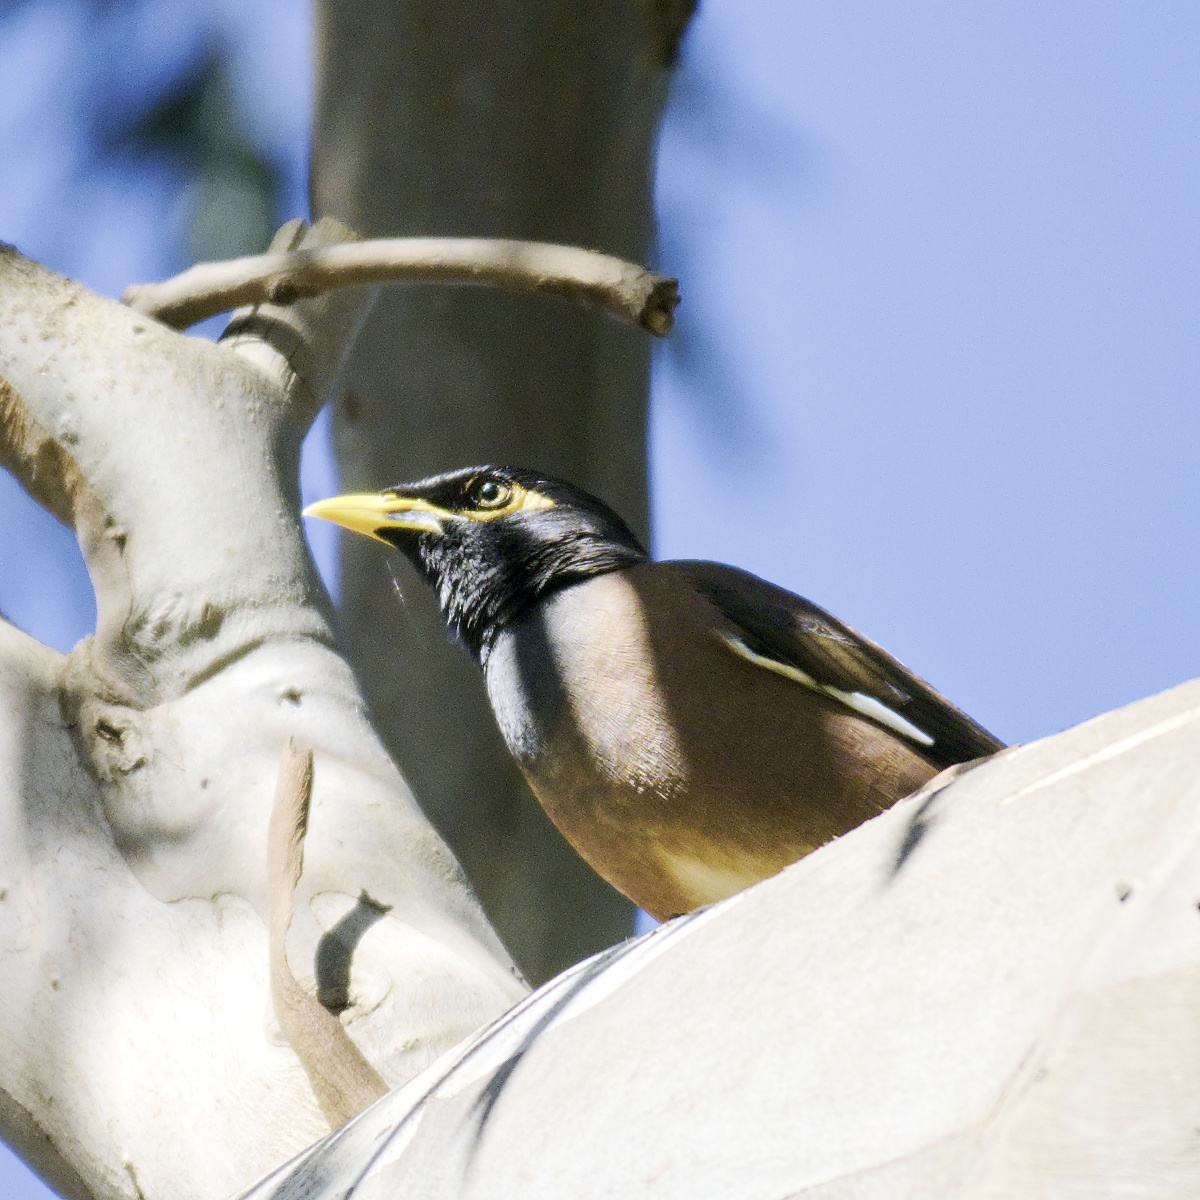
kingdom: Animalia
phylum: Chordata
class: Aves
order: Passeriformes
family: Sturnidae
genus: Acridotheres
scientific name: Acridotheres tristis
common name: Common myna
